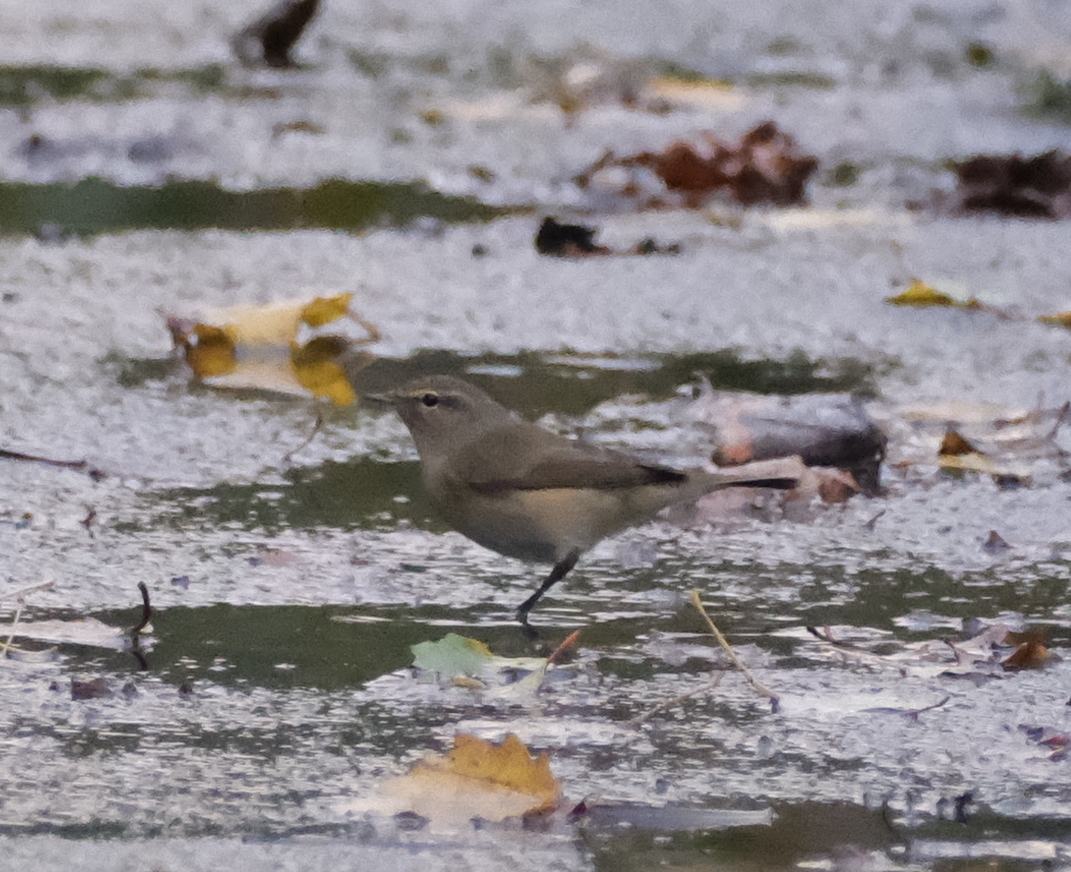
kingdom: Animalia
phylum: Chordata
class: Aves
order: Passeriformes
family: Phylloscopidae
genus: Phylloscopus
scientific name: Phylloscopus collybita
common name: Common chiffchaff
